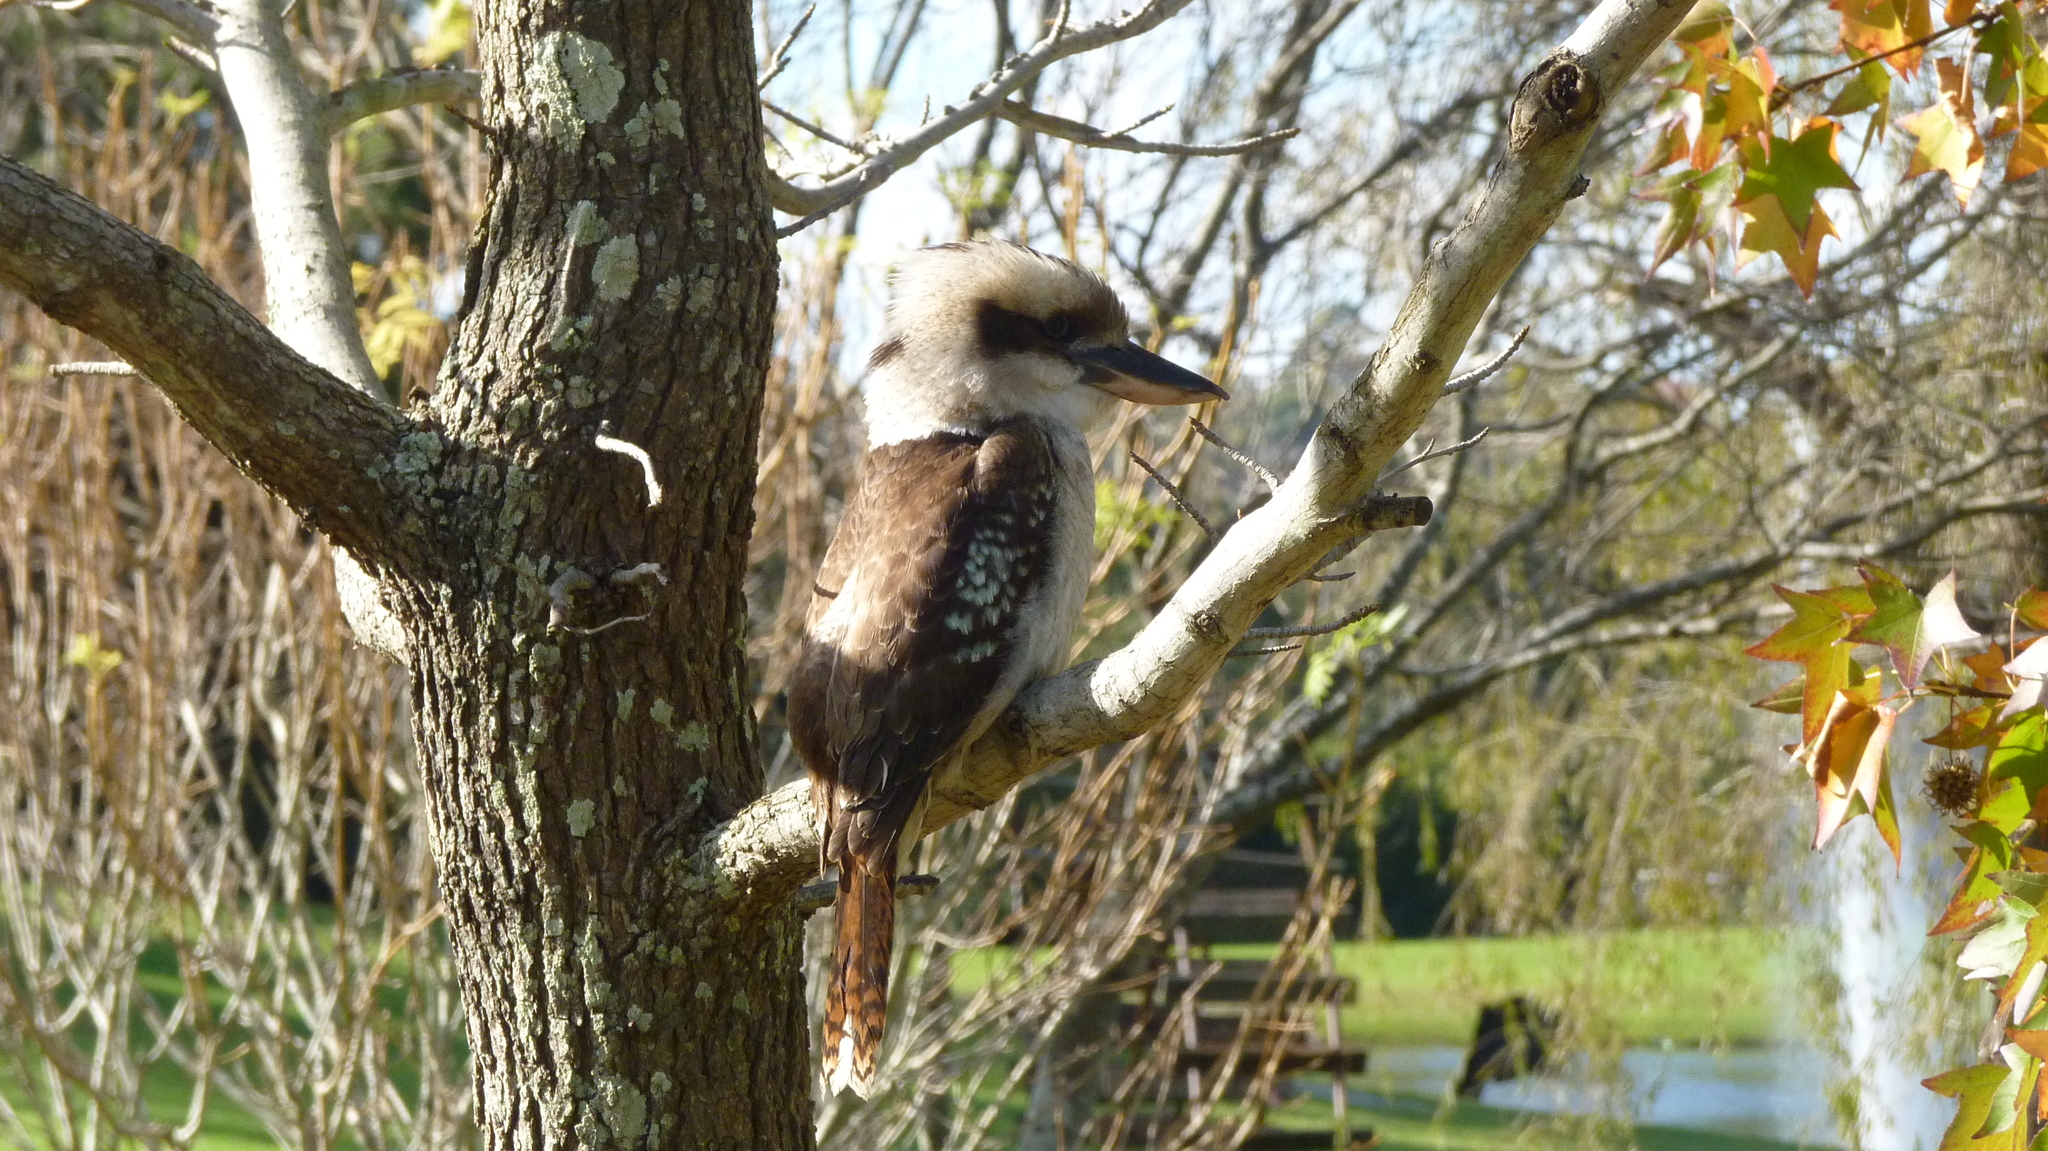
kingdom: Animalia
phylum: Chordata
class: Aves
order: Coraciiformes
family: Alcedinidae
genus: Dacelo
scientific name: Dacelo novaeguineae
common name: Laughing kookaburra
